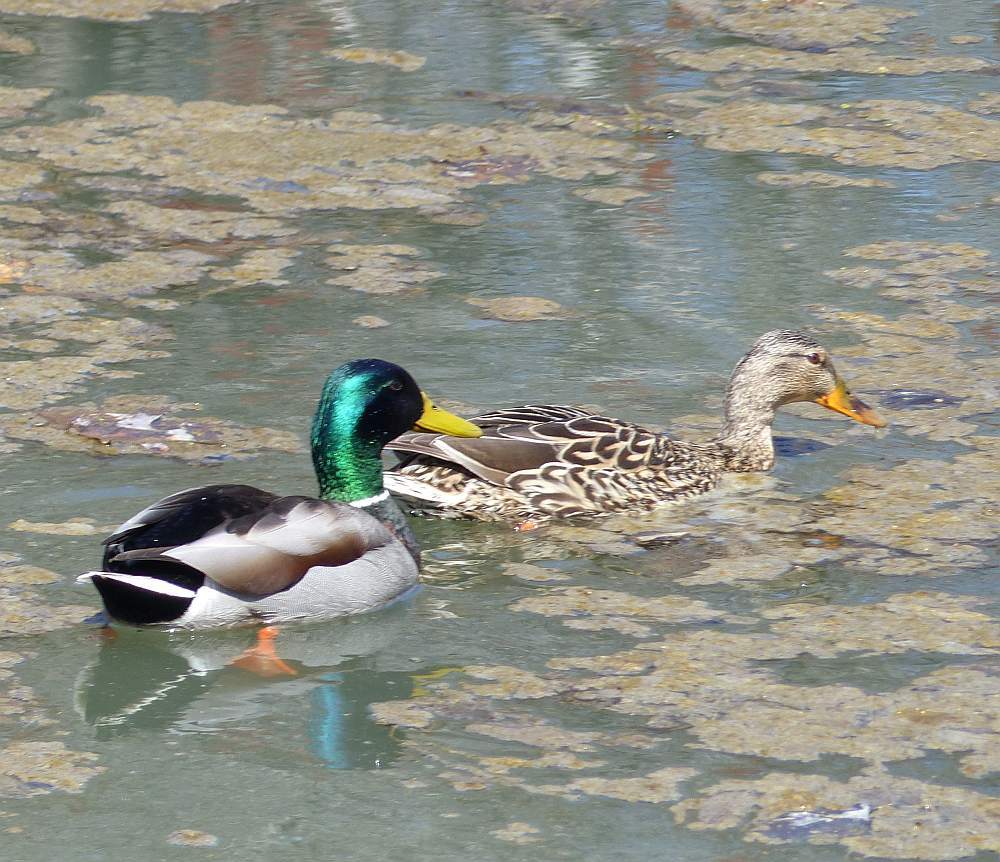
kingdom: Animalia
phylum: Chordata
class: Aves
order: Anseriformes
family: Anatidae
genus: Anas
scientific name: Anas platyrhynchos
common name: Mallard
